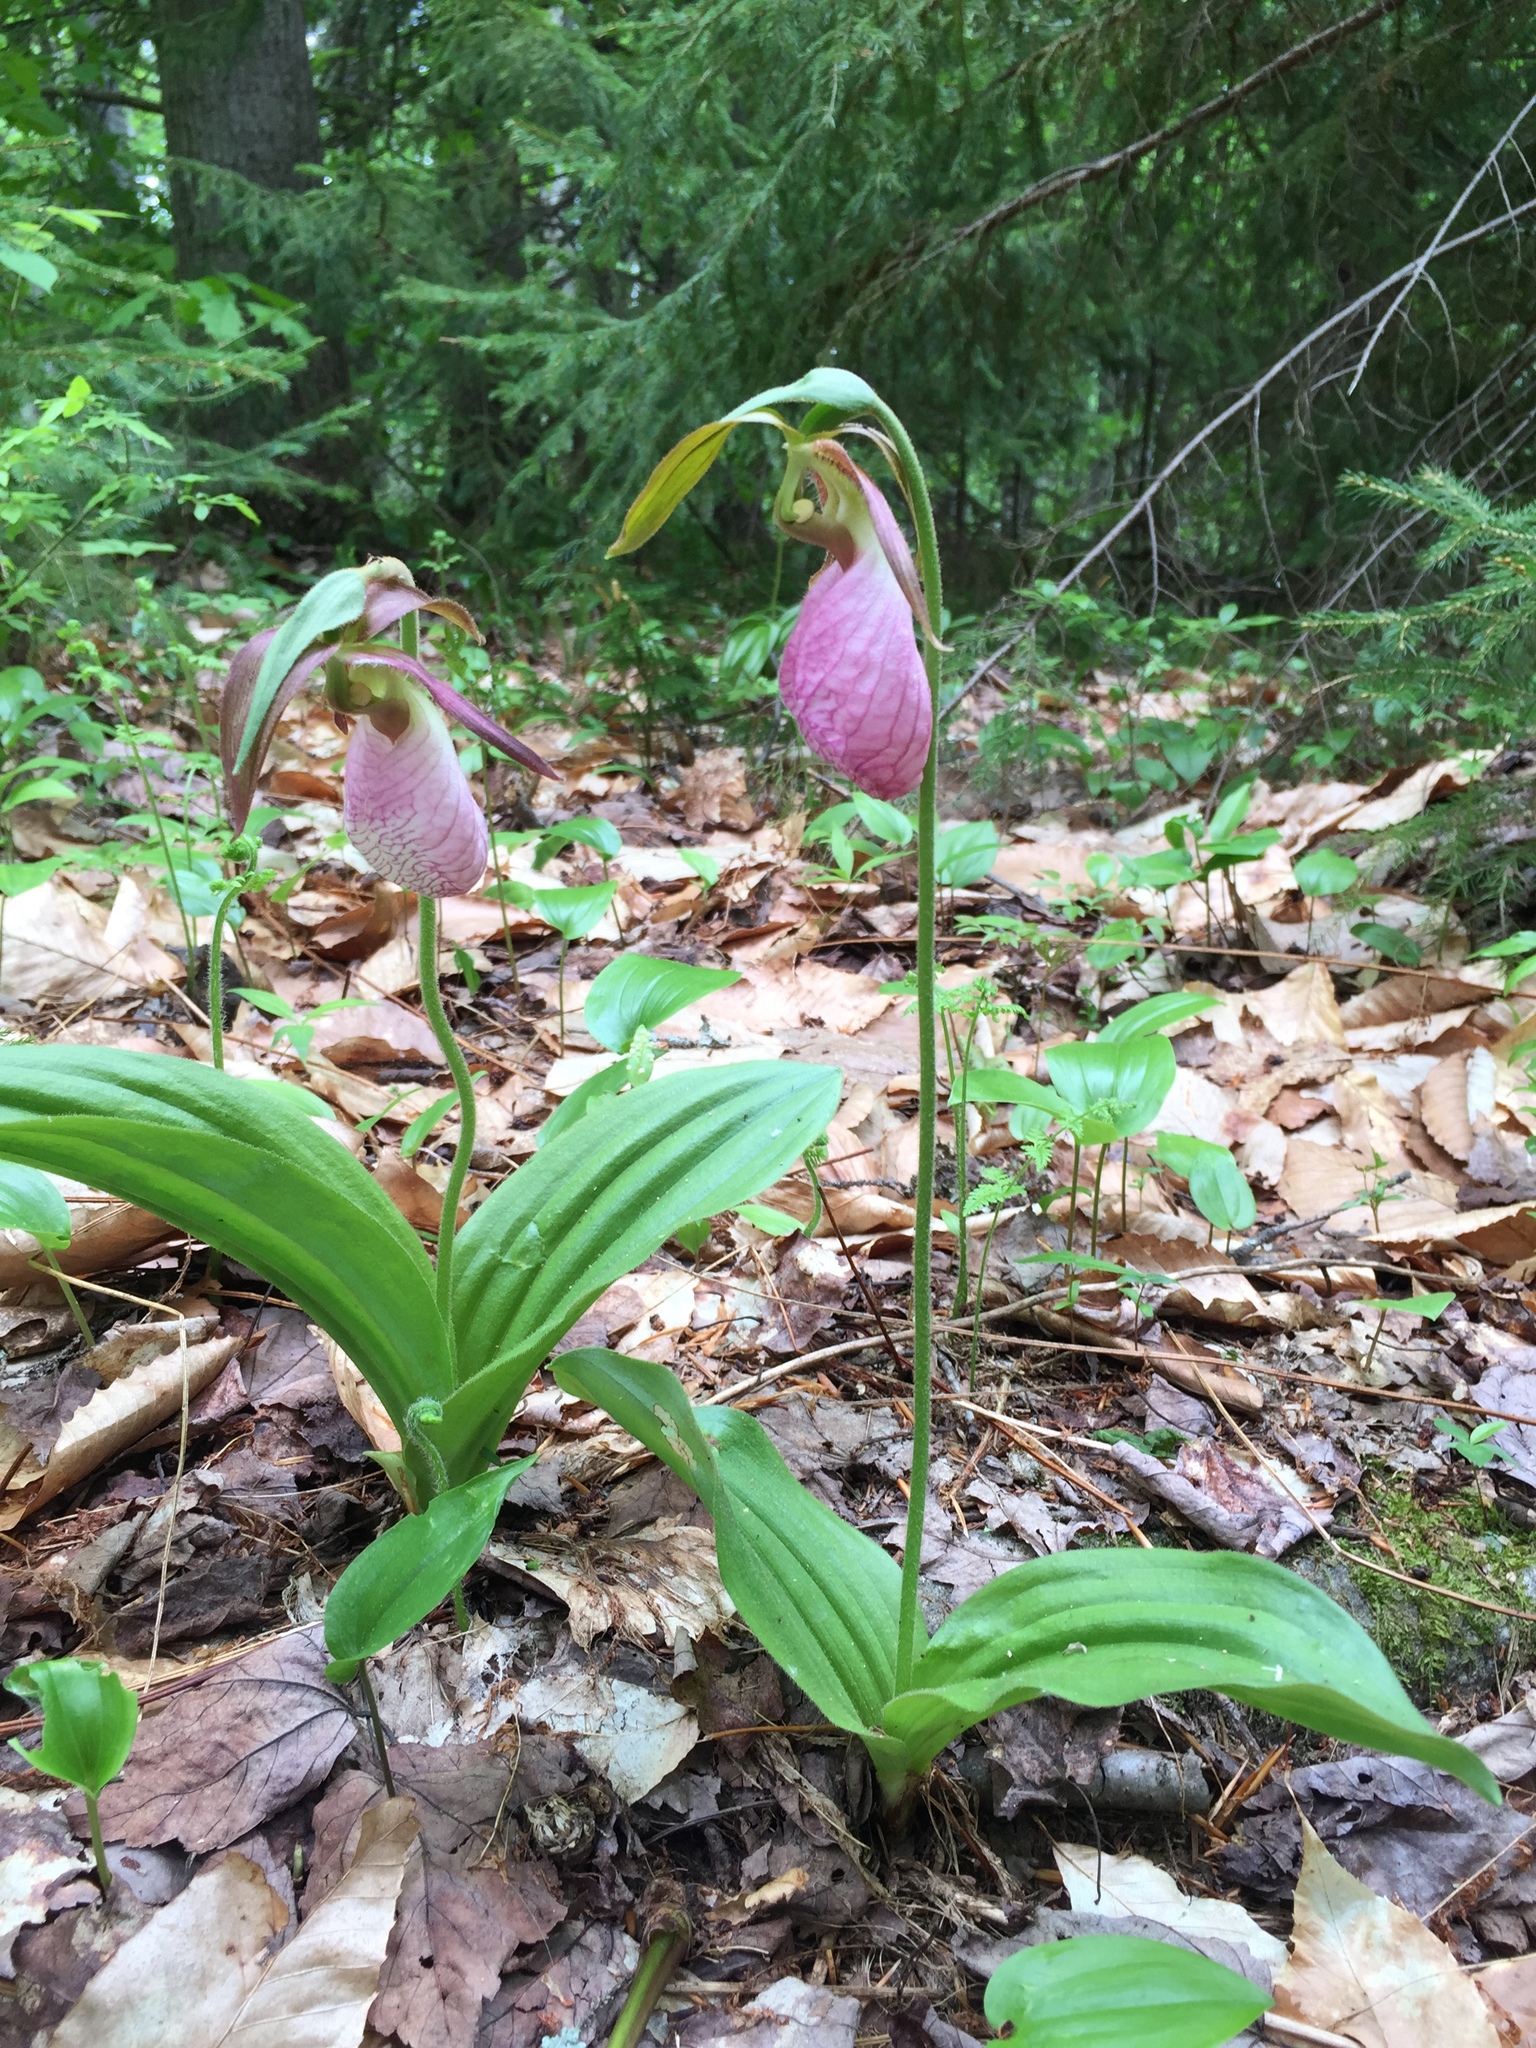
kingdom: Plantae
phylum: Tracheophyta
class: Liliopsida
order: Asparagales
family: Orchidaceae
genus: Cypripedium
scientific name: Cypripedium acaule
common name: Pink lady's-slipper
